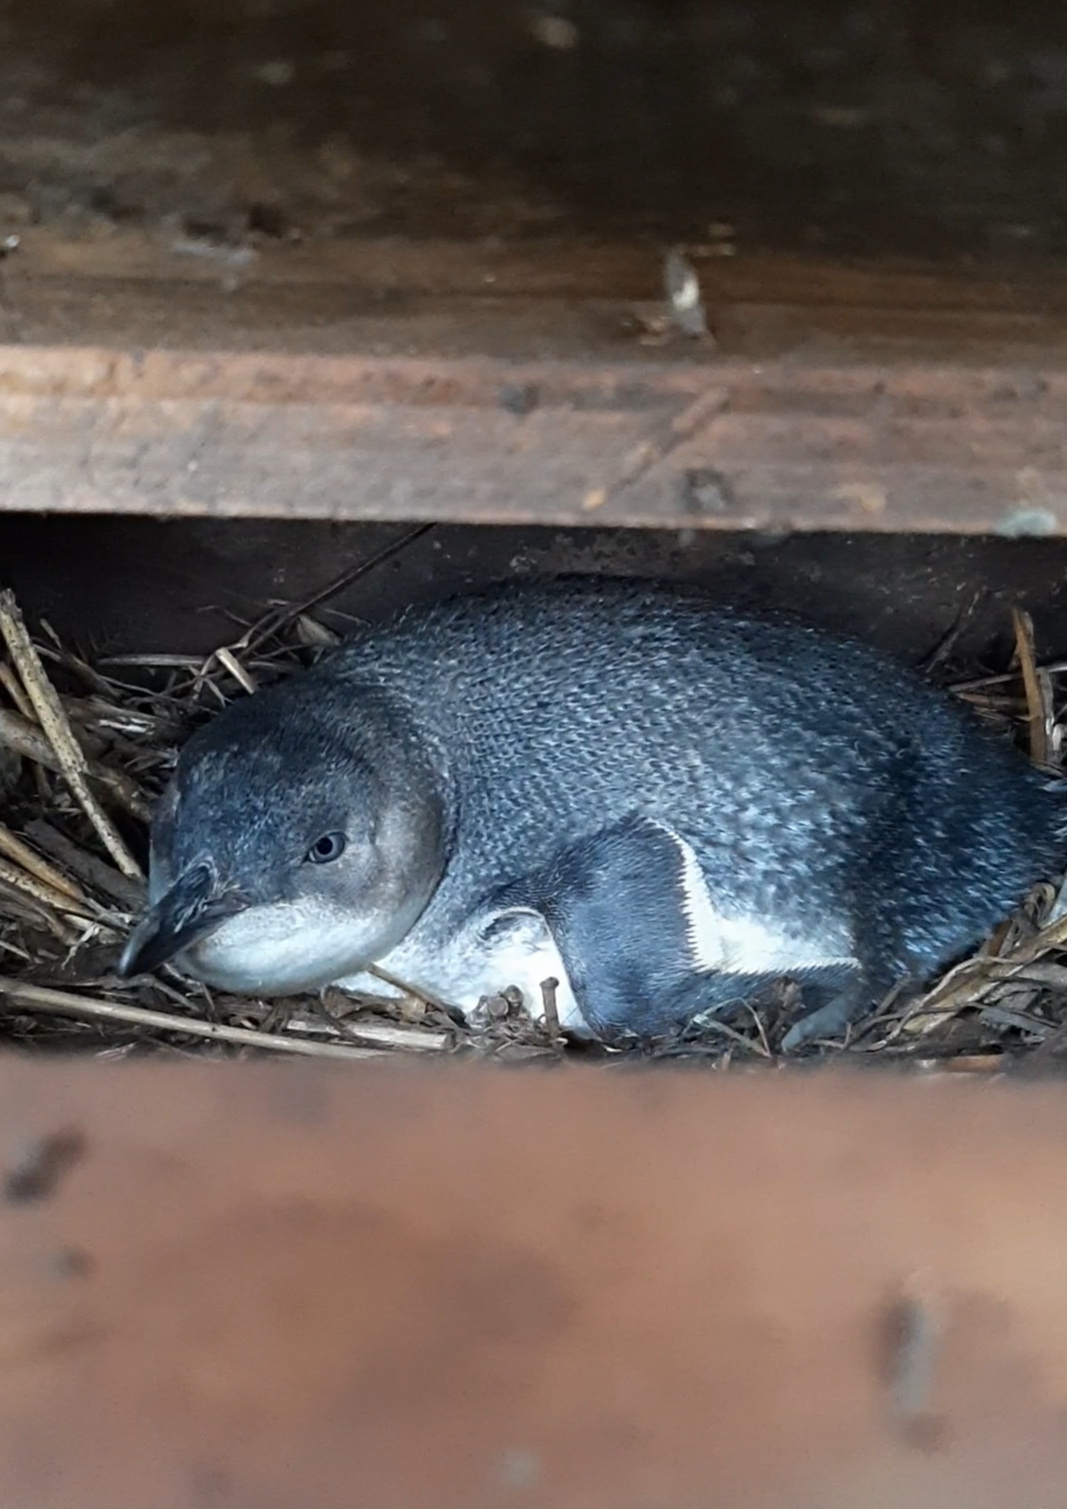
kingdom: Animalia
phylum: Chordata
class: Aves
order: Sphenisciformes
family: Spheniscidae
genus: Eudyptula
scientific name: Eudyptula minor
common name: Little penguin
